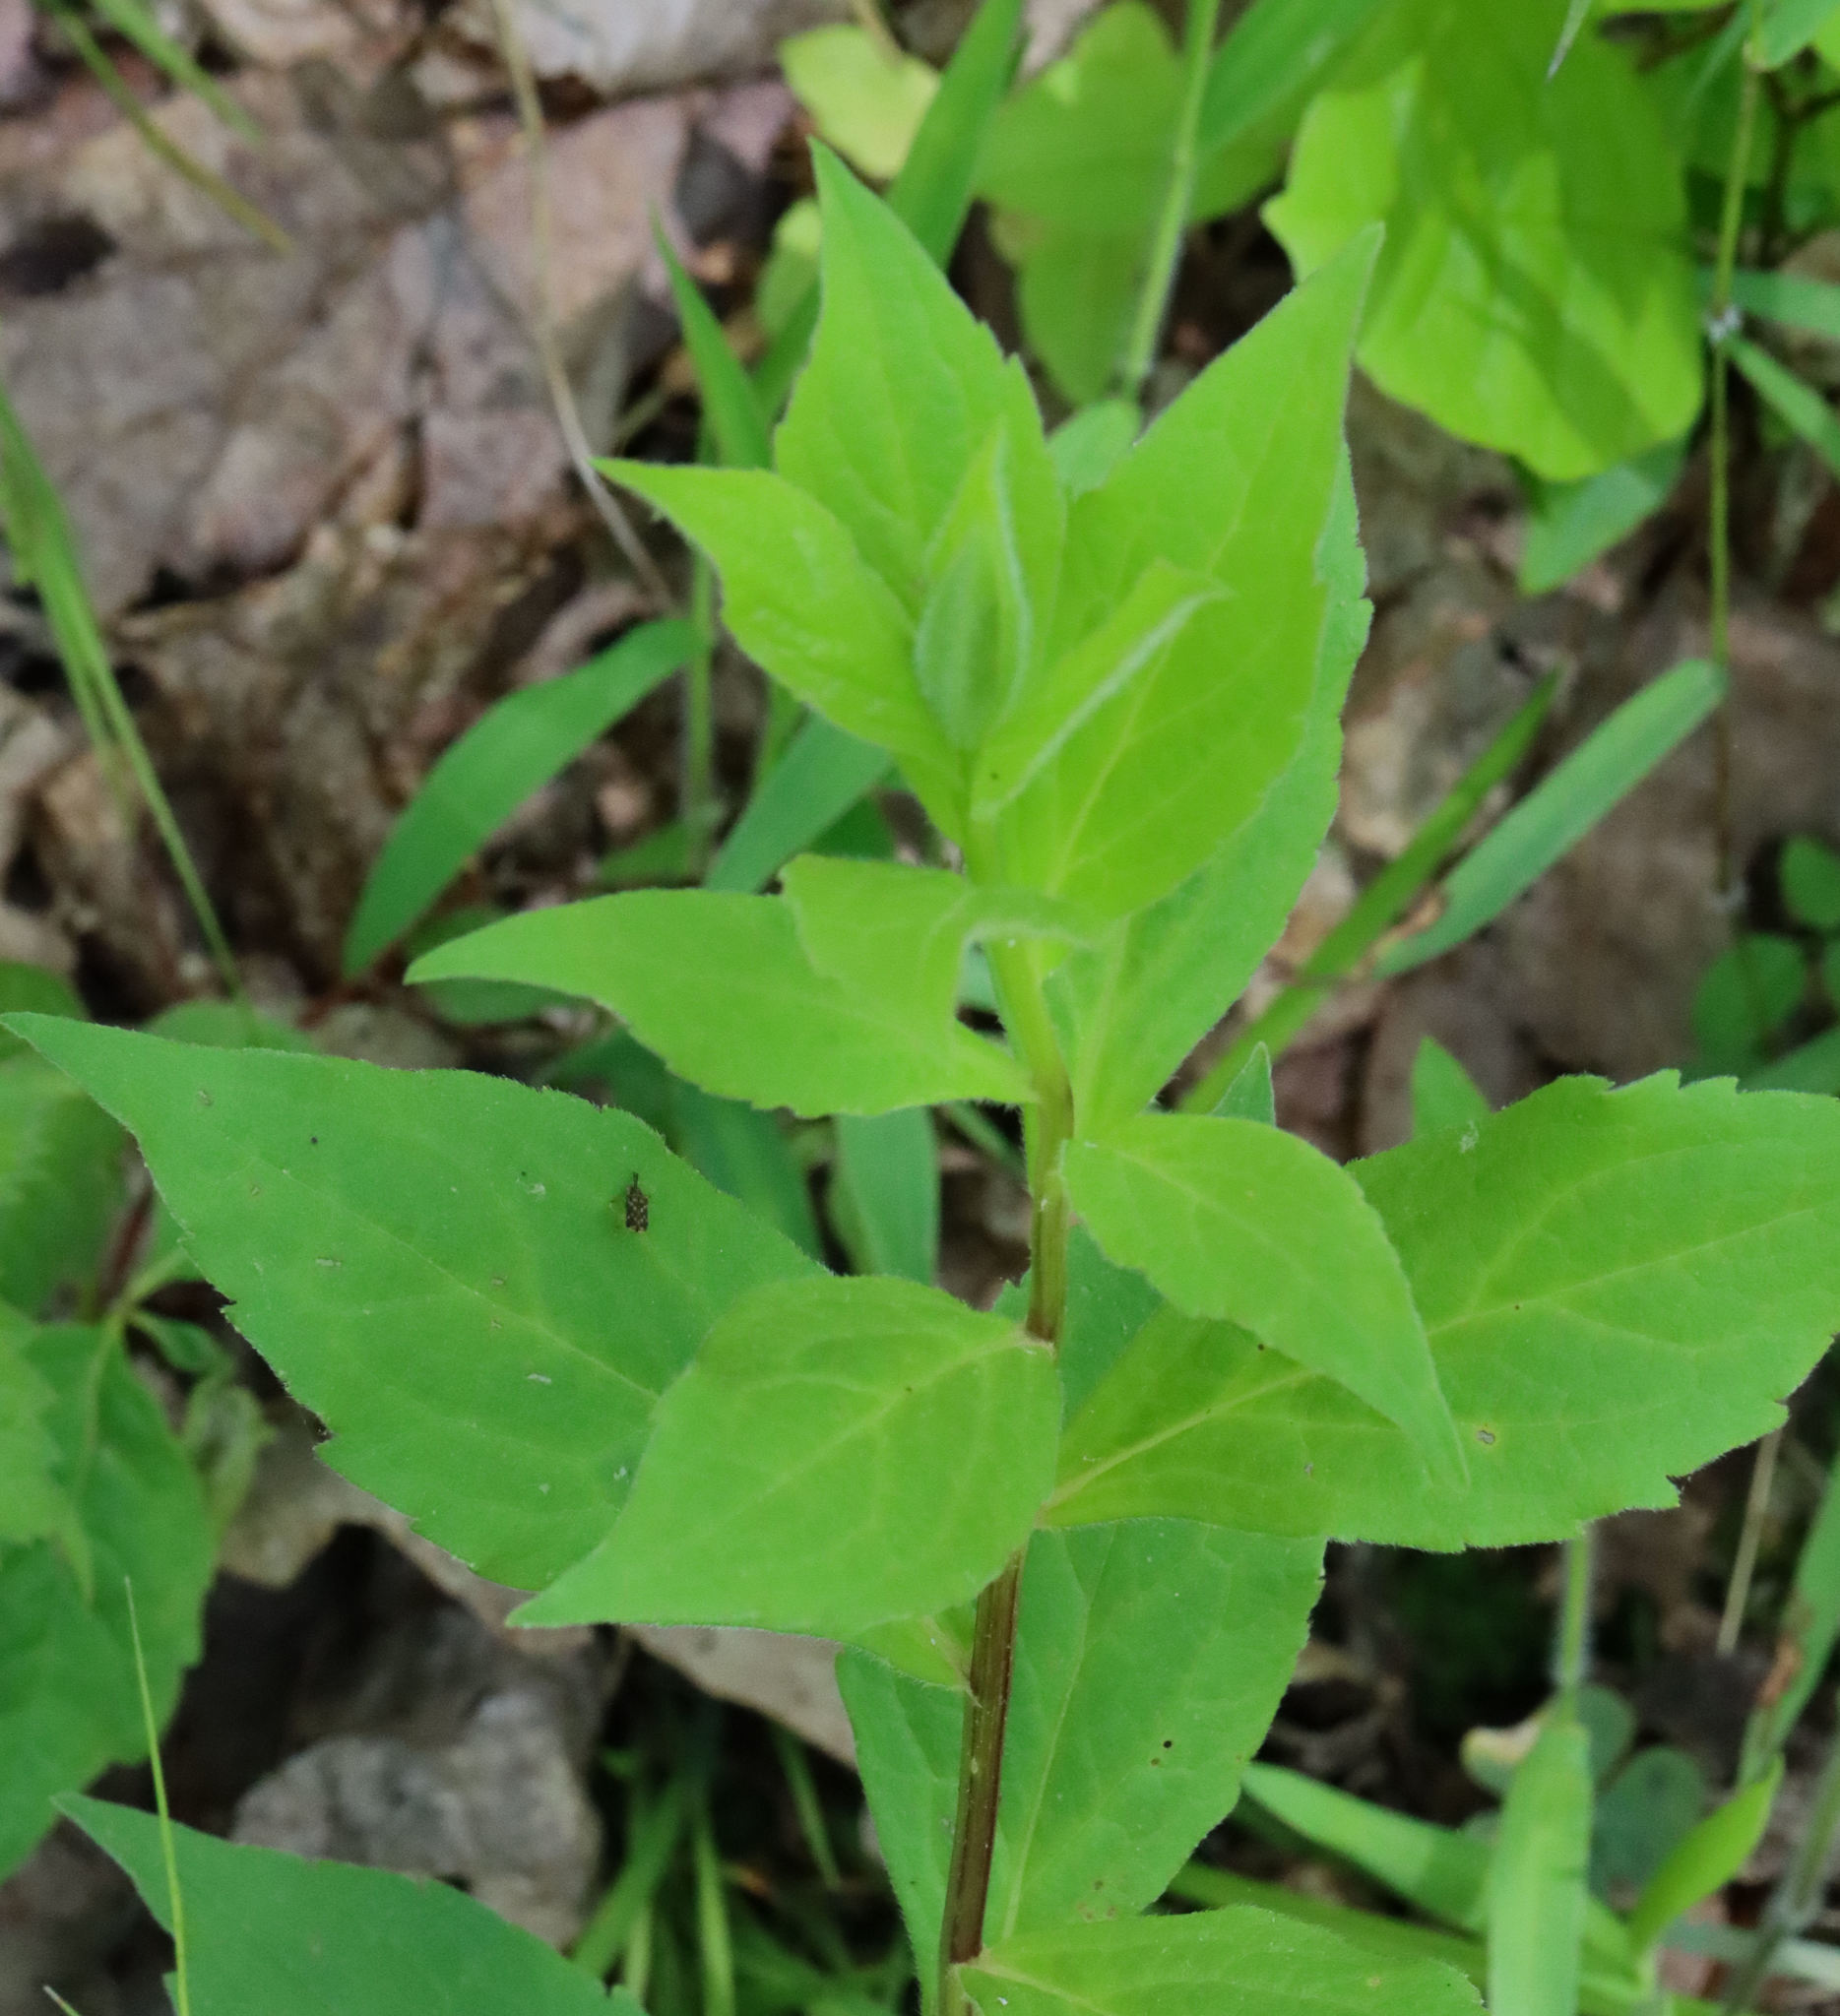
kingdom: Animalia
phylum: Arthropoda
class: Insecta
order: Coleoptera
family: Chrysomelidae
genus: Sumitrosis
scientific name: Sumitrosis inaequalis
